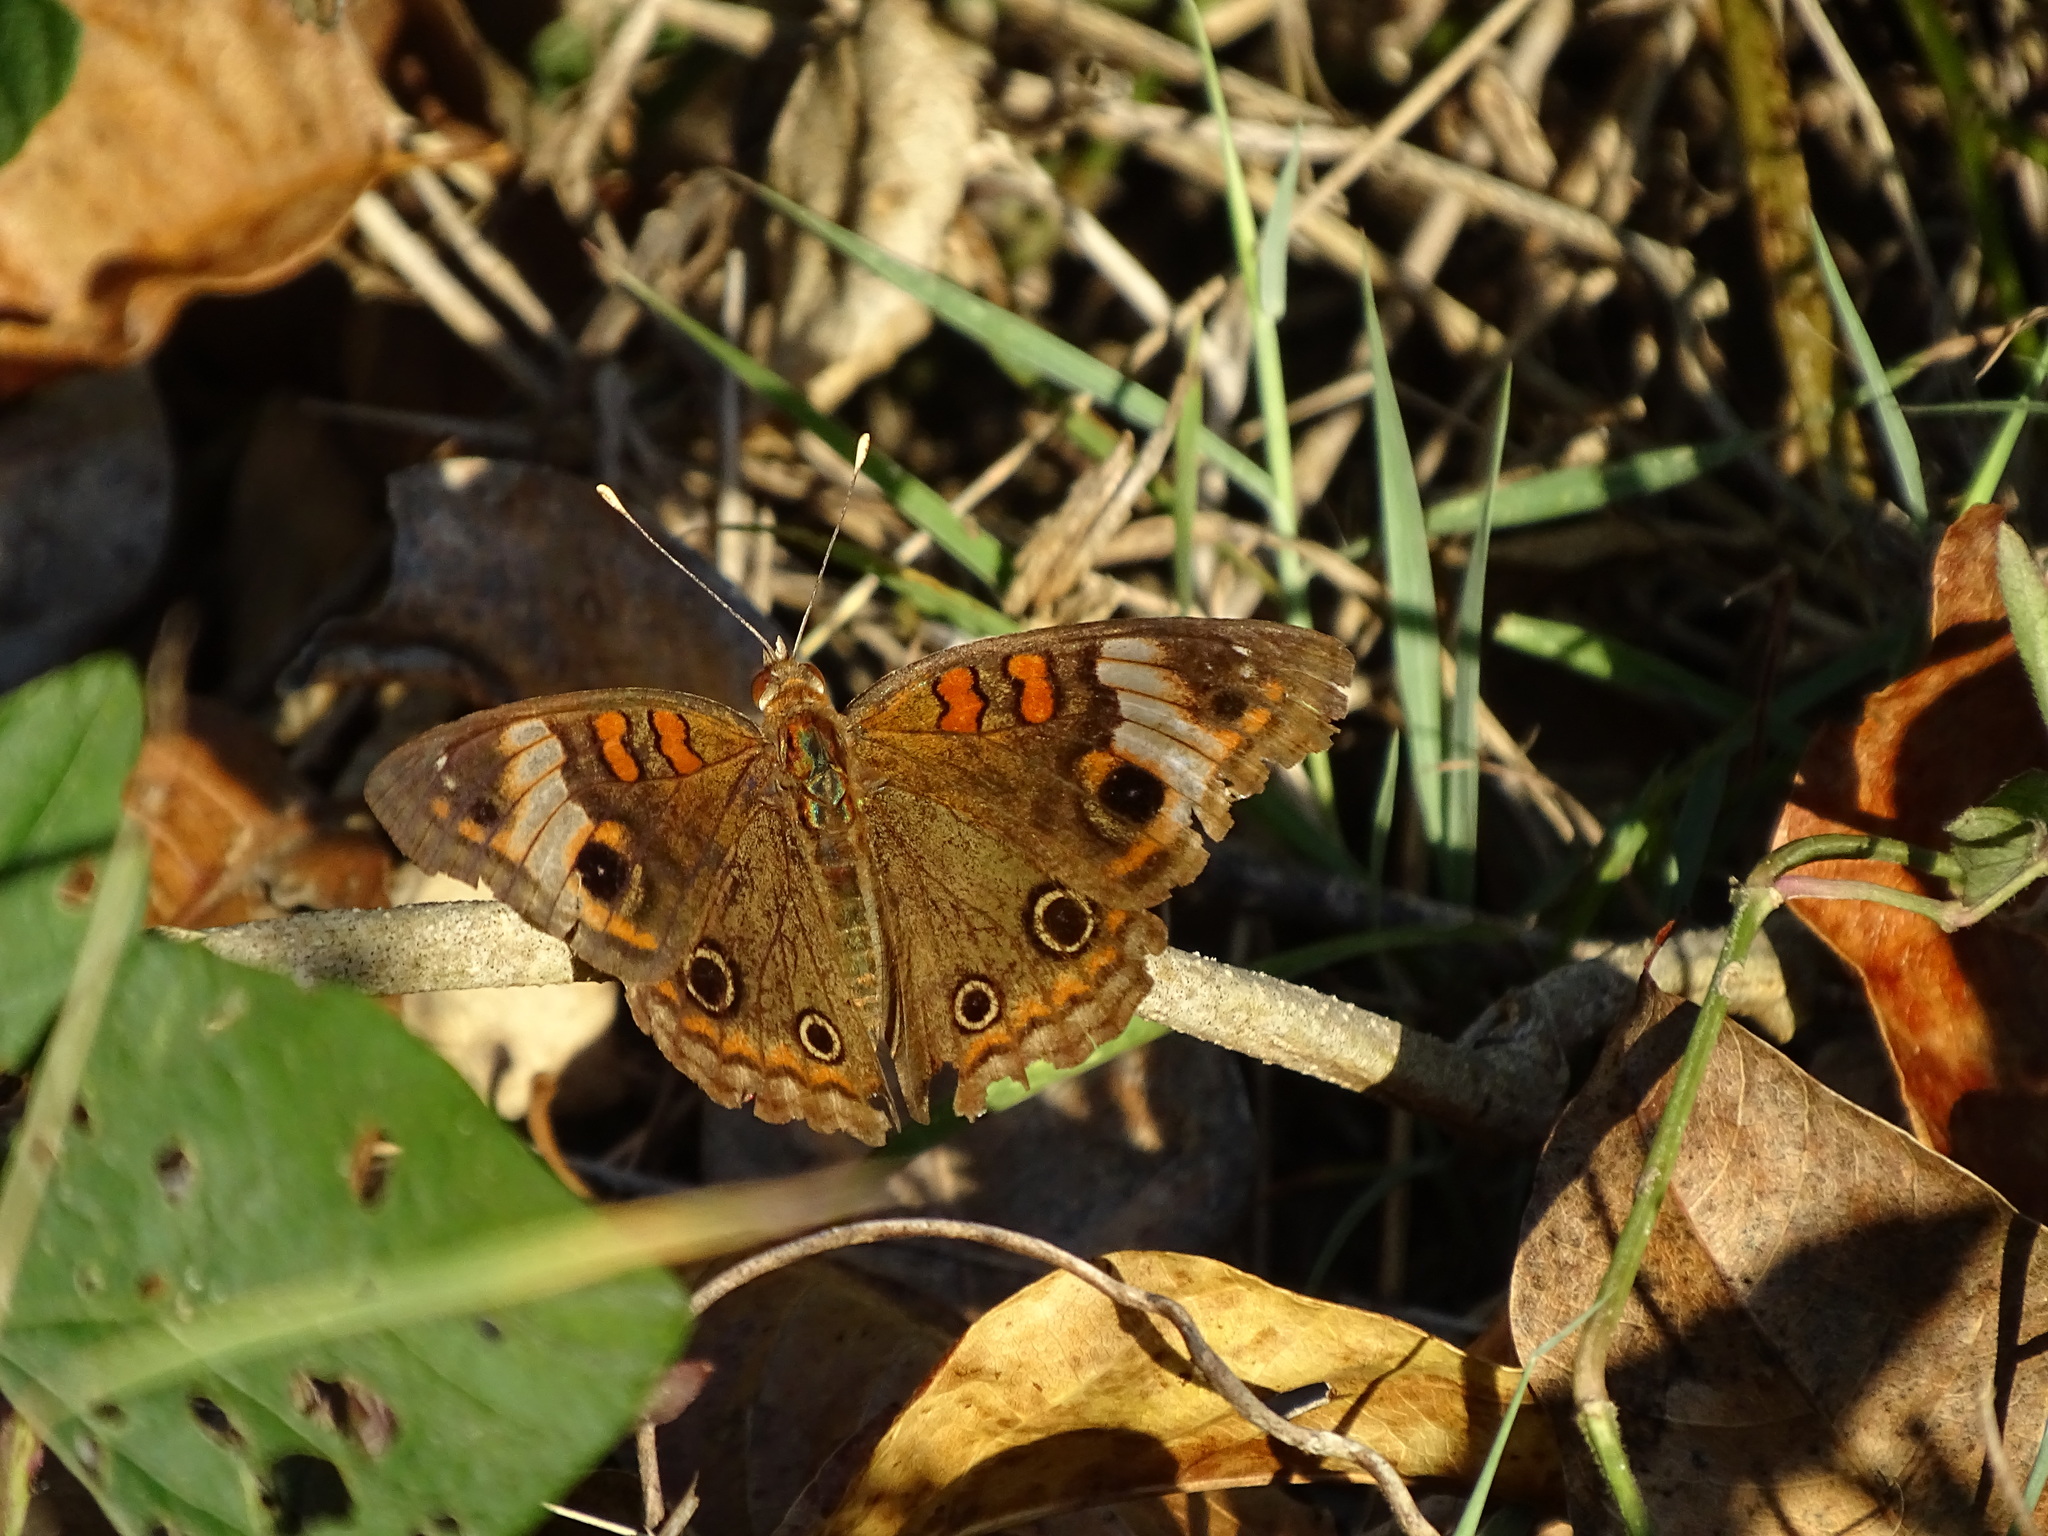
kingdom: Animalia
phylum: Arthropoda
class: Insecta
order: Lepidoptera
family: Nymphalidae
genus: Junonia
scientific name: Junonia lavinia
